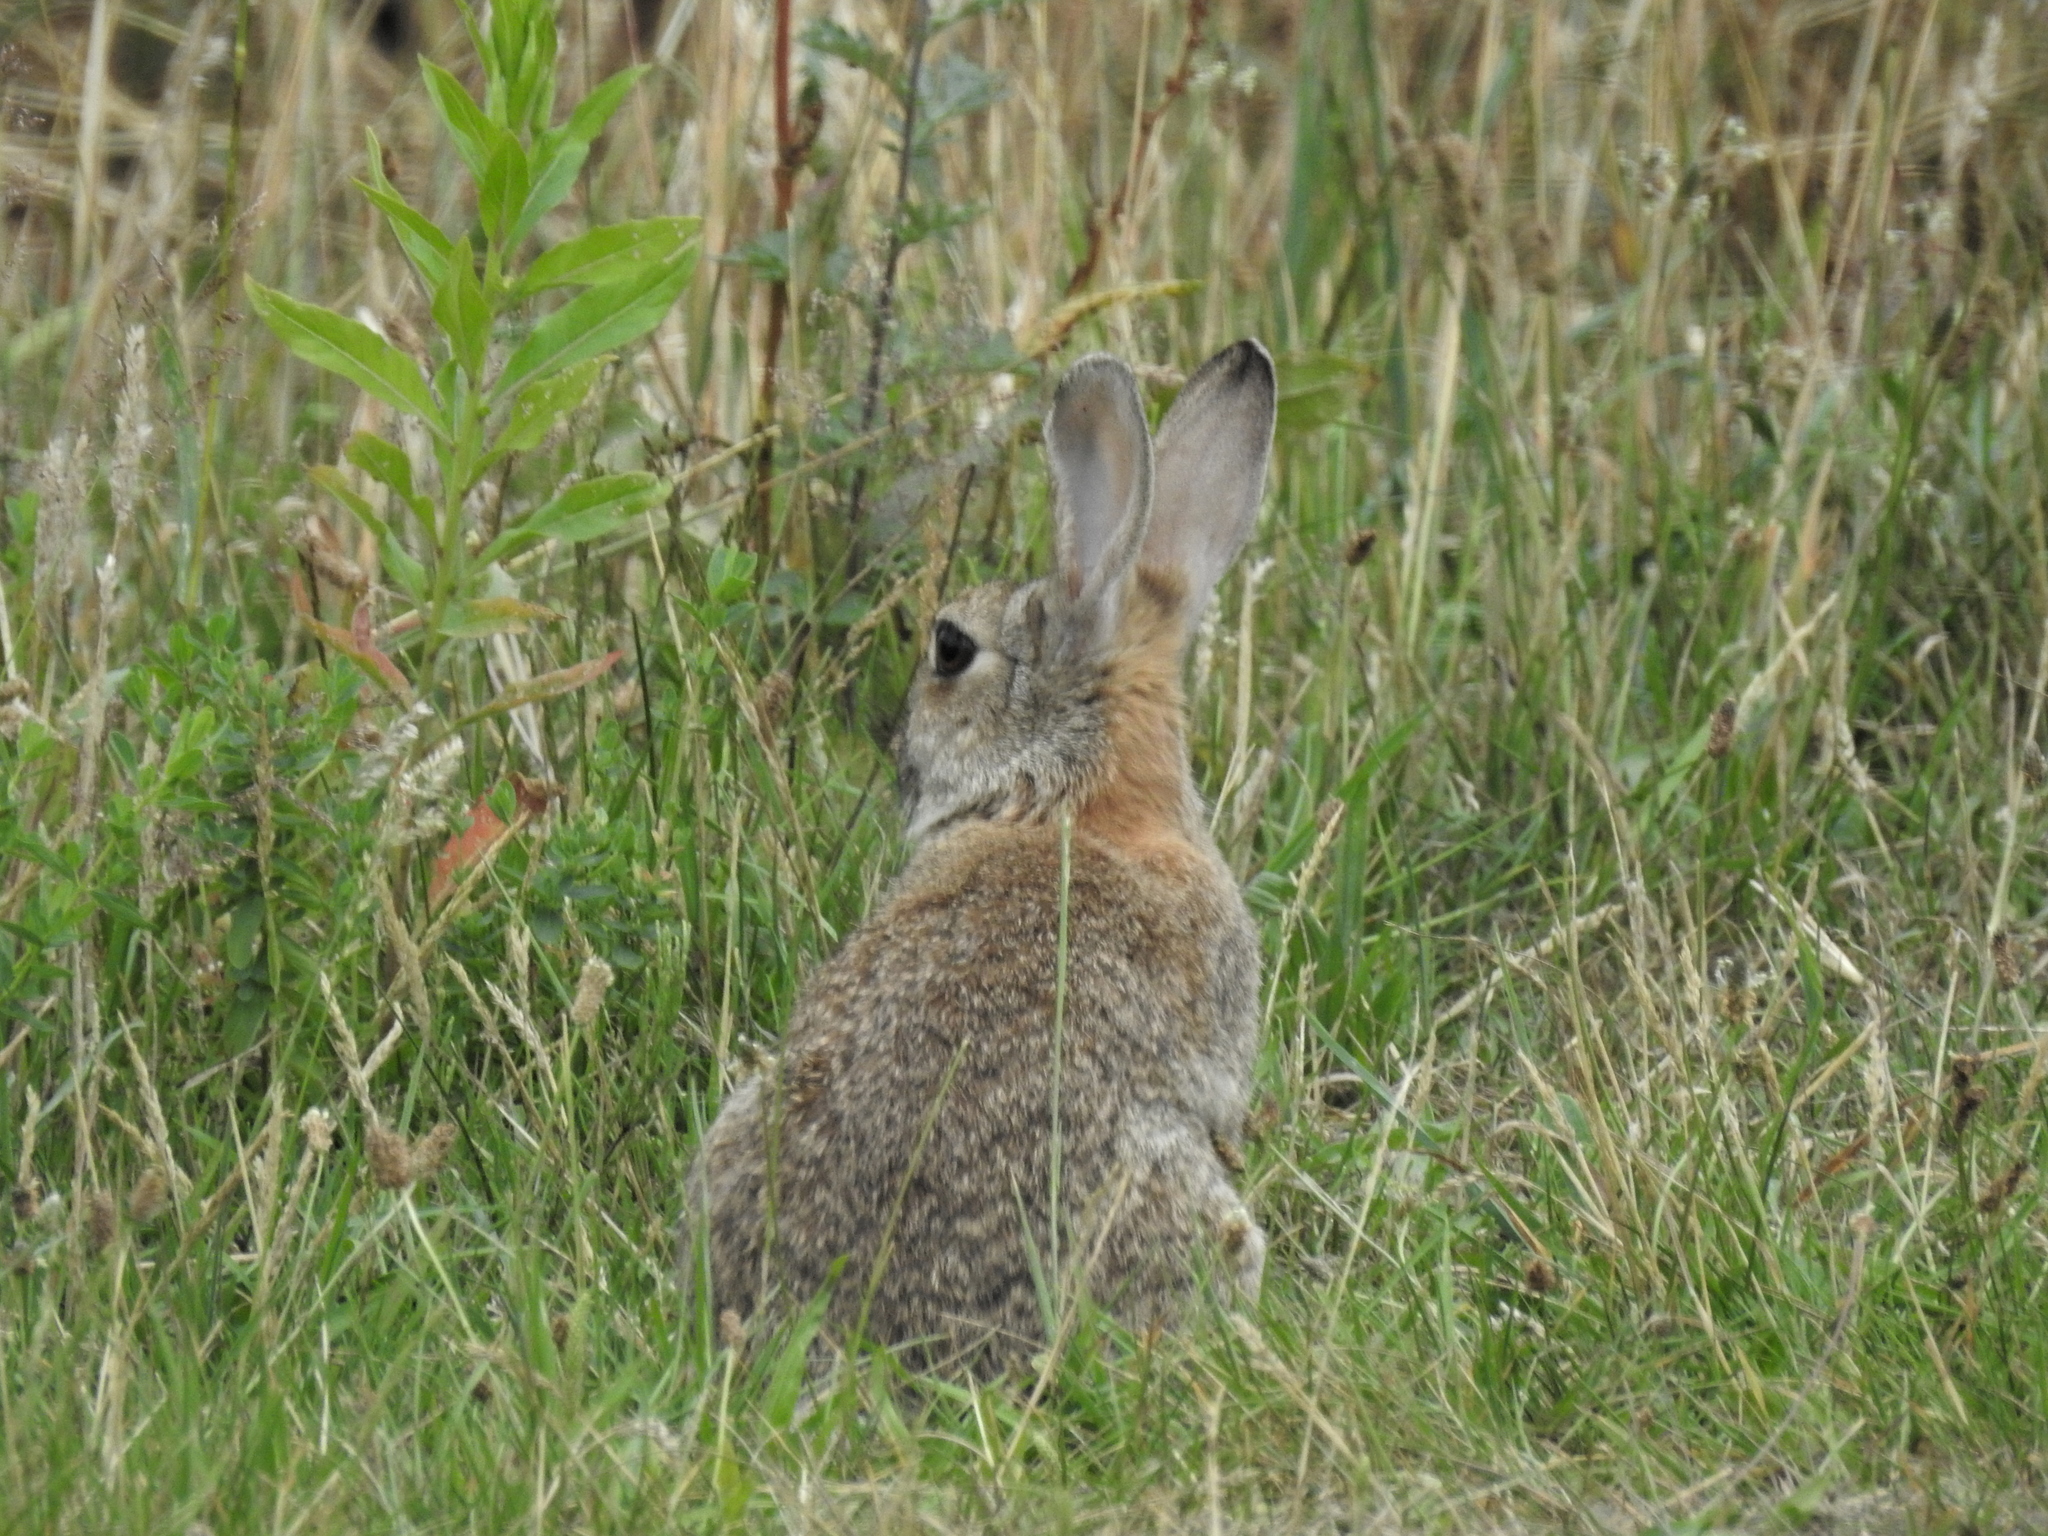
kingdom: Animalia
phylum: Chordata
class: Mammalia
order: Lagomorpha
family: Leporidae
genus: Oryctolagus
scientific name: Oryctolagus cuniculus
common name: European rabbit
